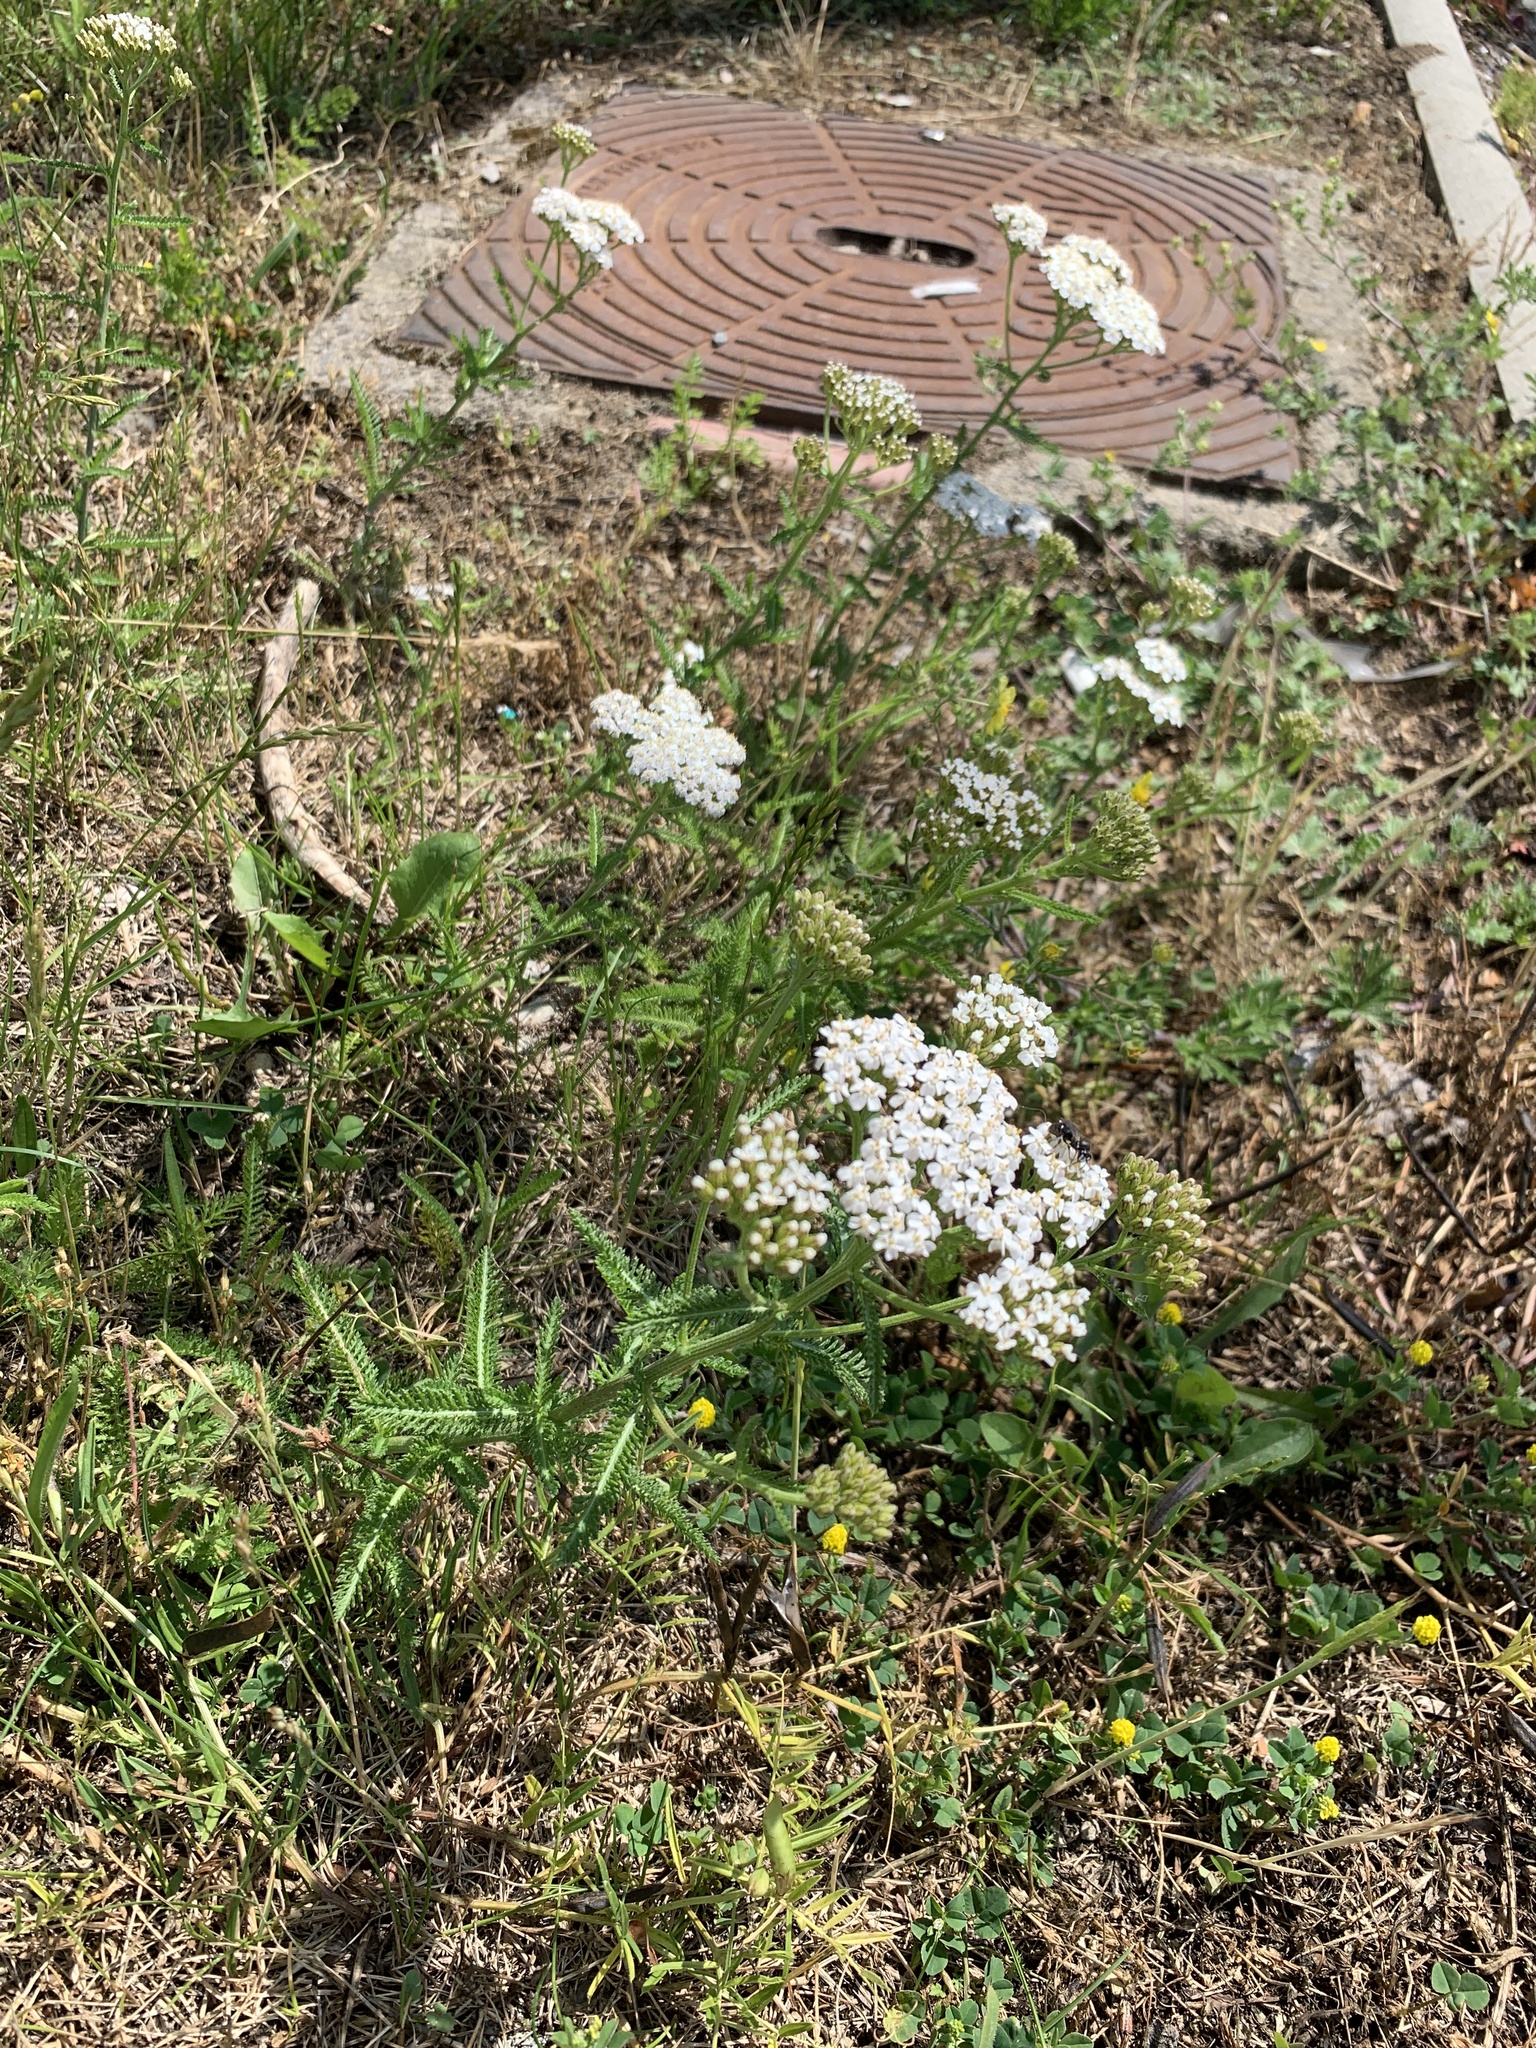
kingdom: Plantae
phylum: Tracheophyta
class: Magnoliopsida
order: Asterales
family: Asteraceae
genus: Achillea
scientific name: Achillea millefolium
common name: Yarrow
